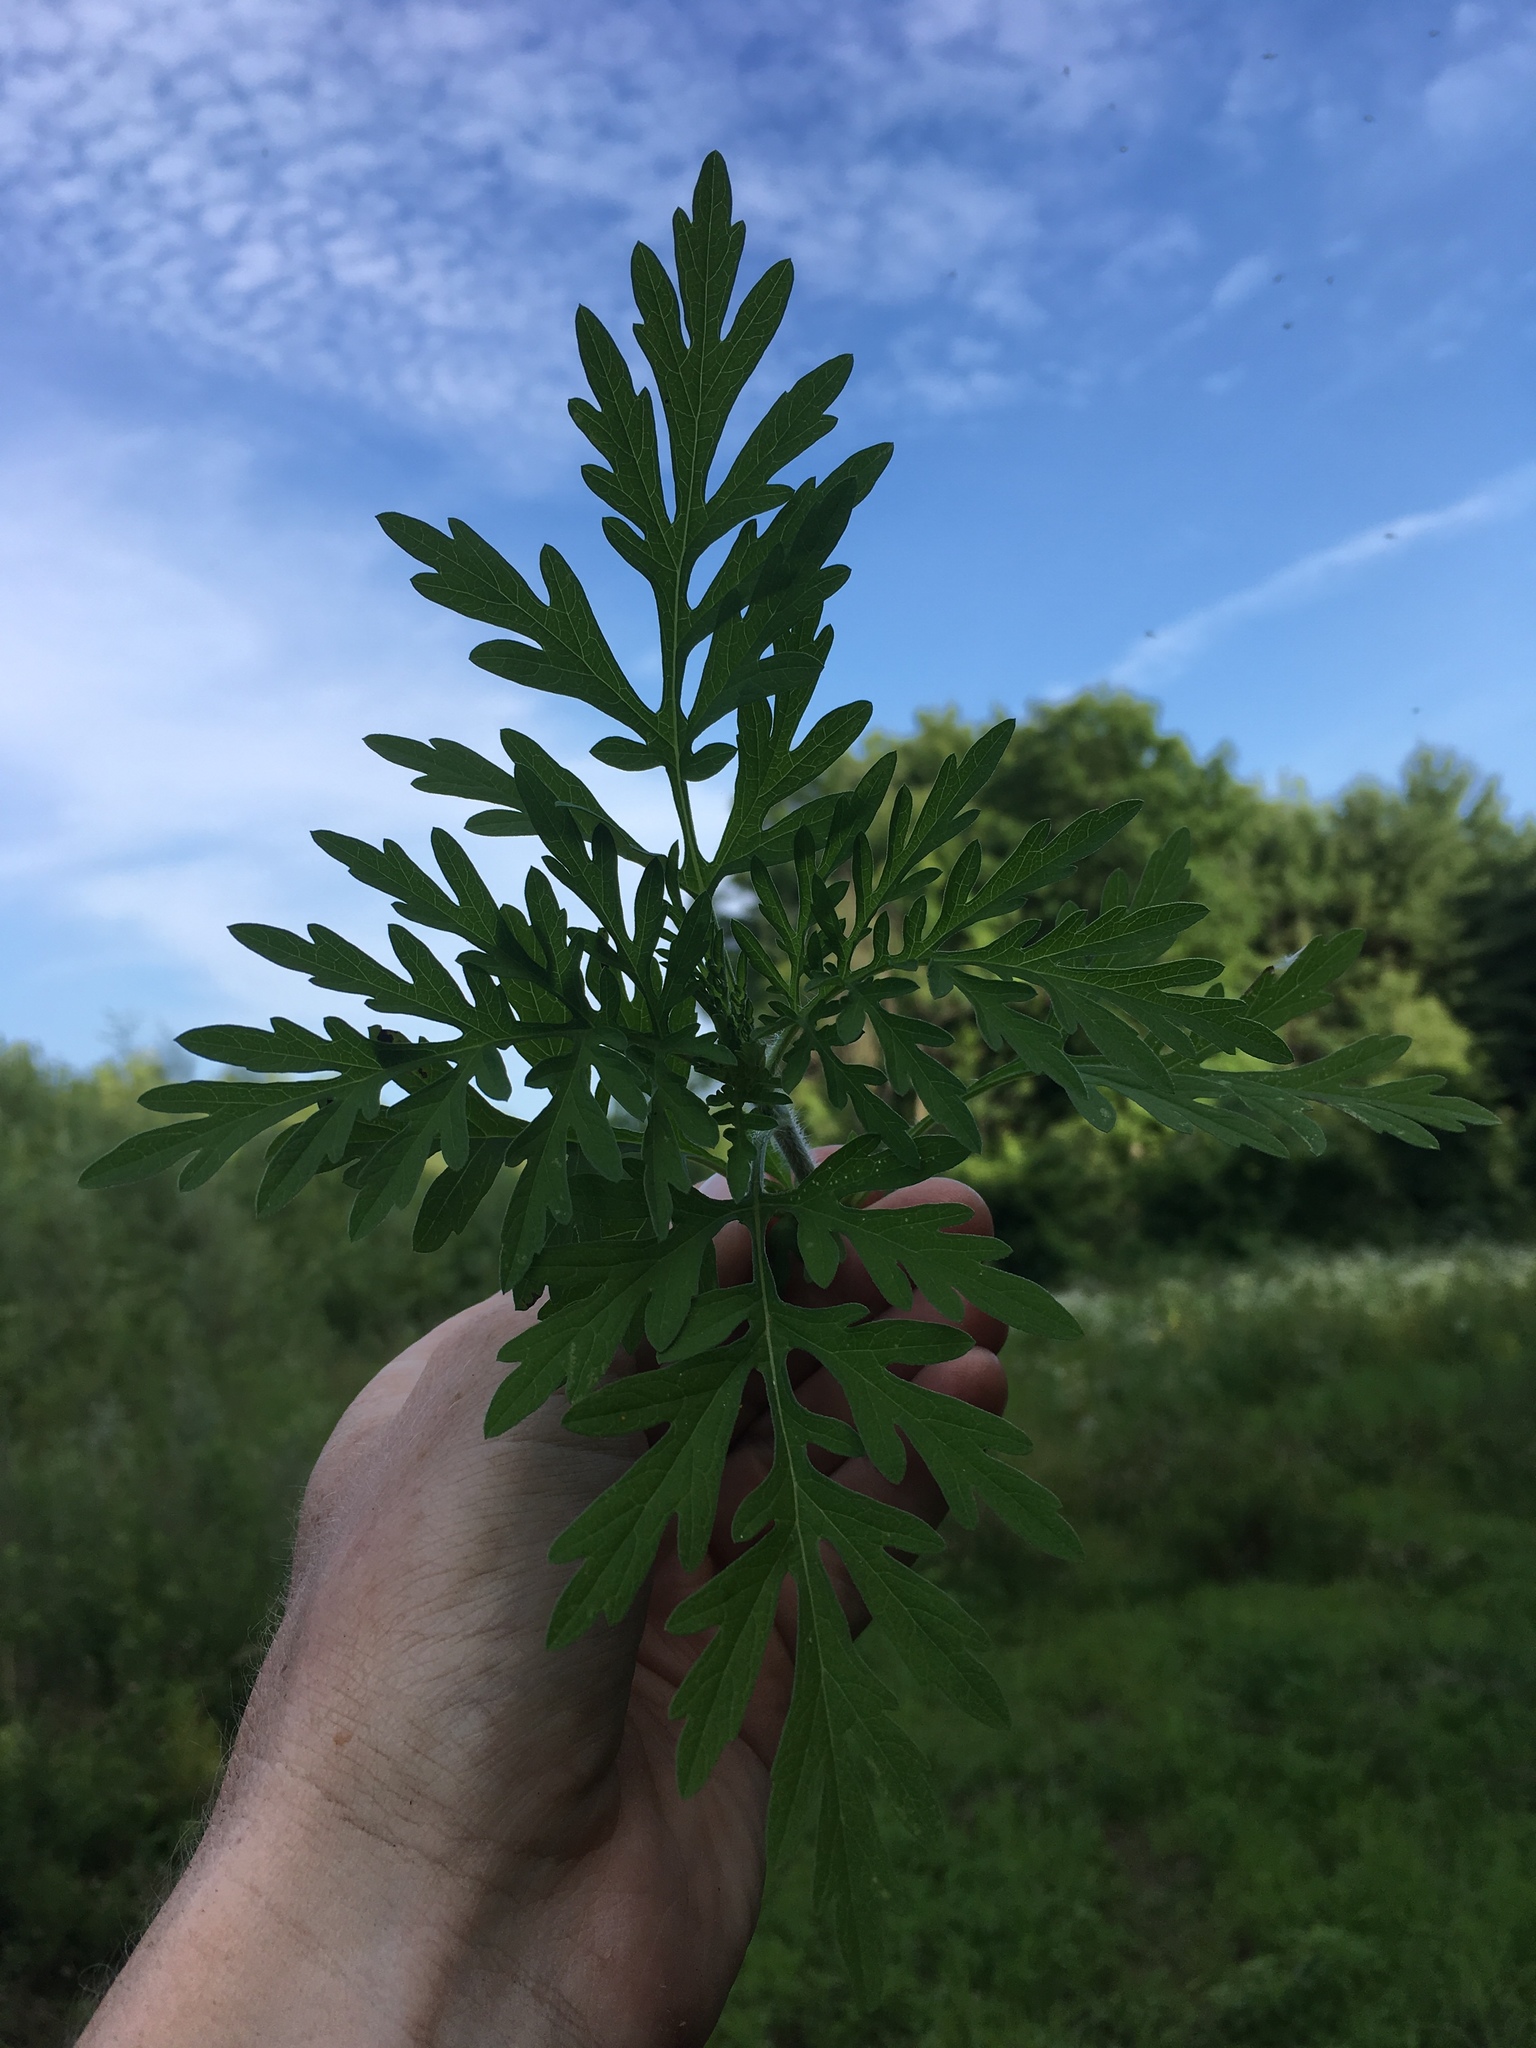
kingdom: Plantae
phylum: Tracheophyta
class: Magnoliopsida
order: Asterales
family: Asteraceae
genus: Ambrosia
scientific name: Ambrosia artemisiifolia
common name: Annual ragweed
